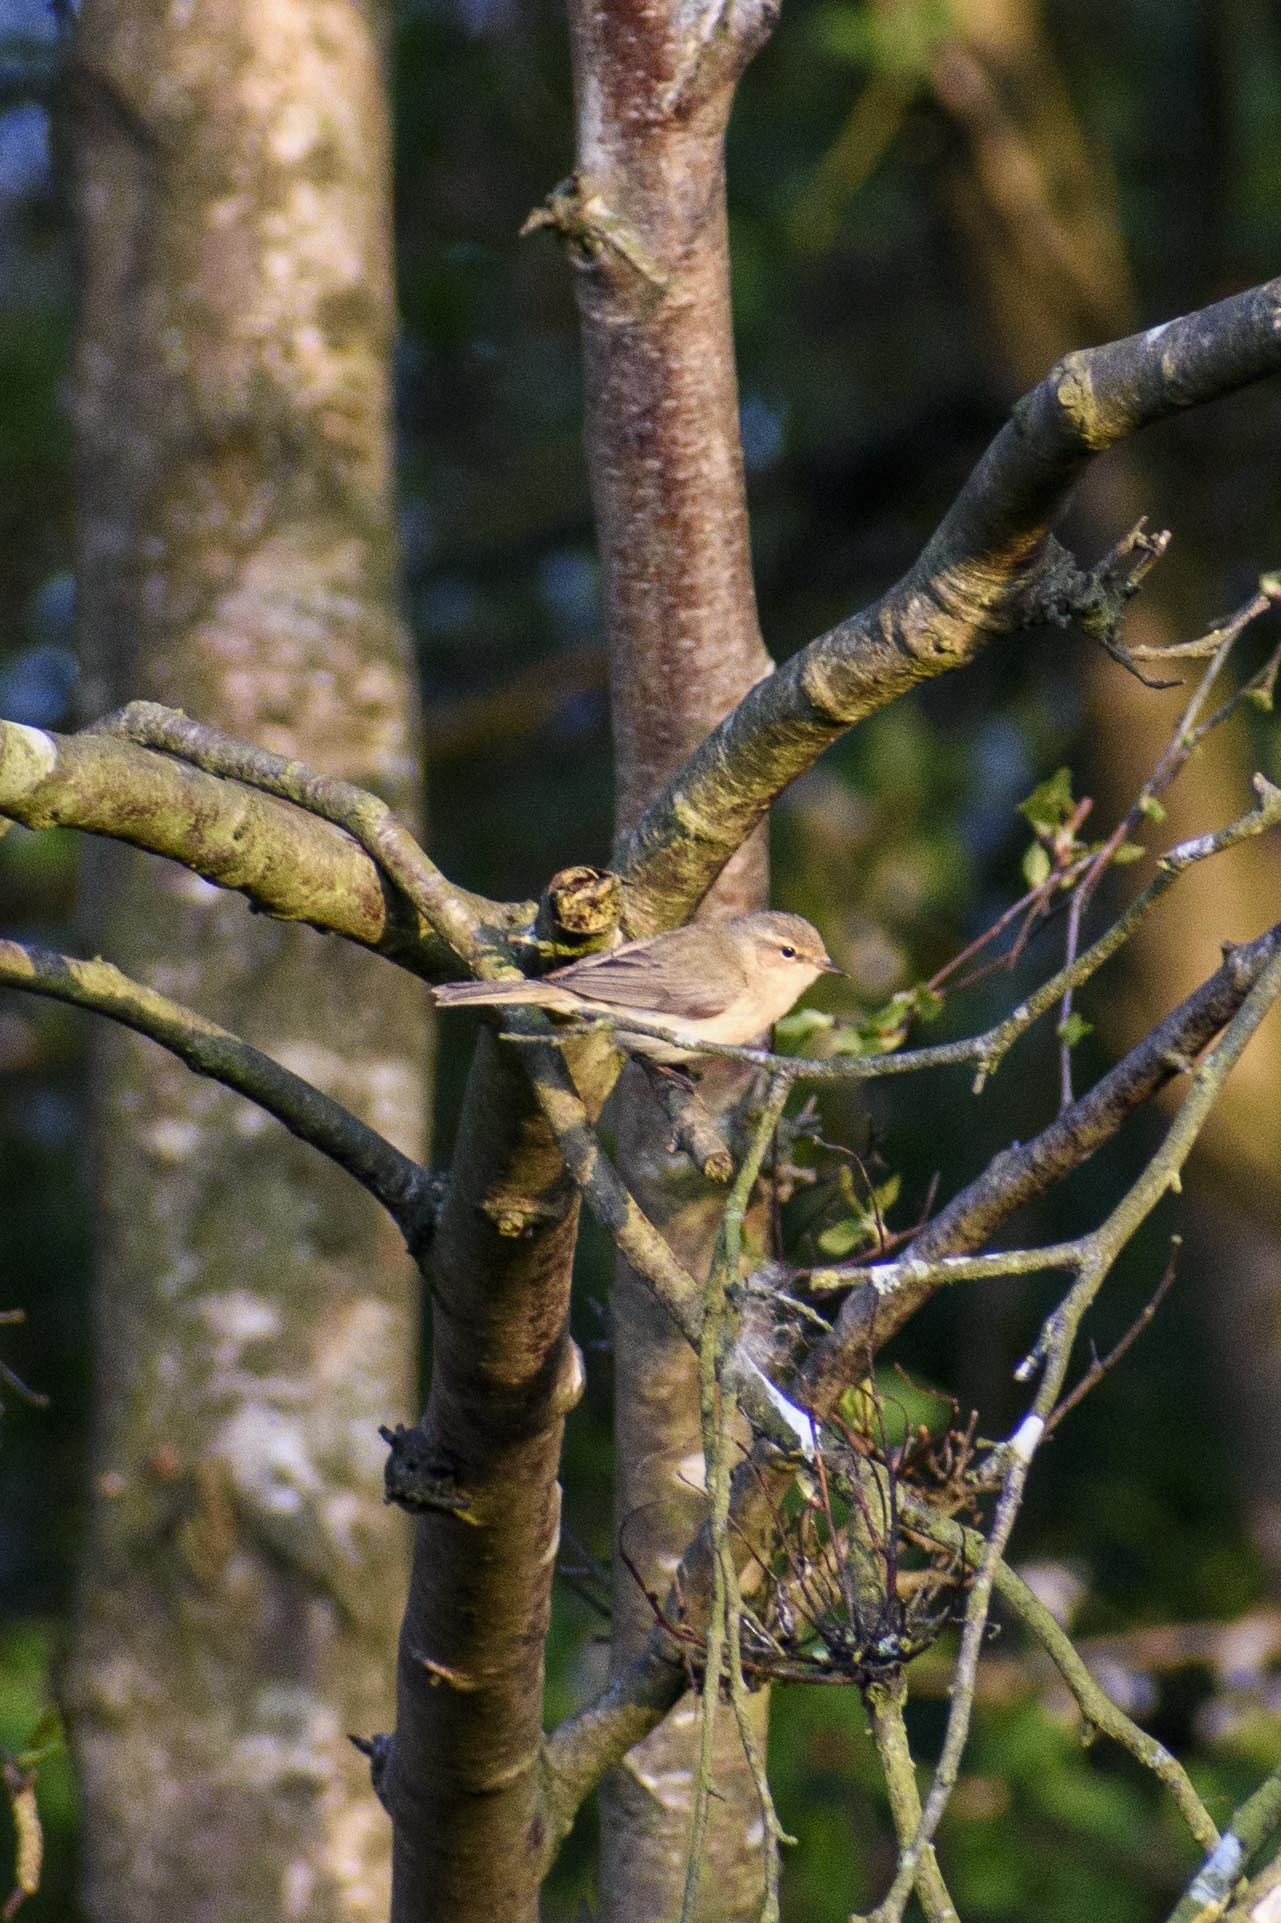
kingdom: Animalia
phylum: Chordata
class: Aves
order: Passeriformes
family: Phylloscopidae
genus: Phylloscopus
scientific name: Phylloscopus collybita
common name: Common chiffchaff
